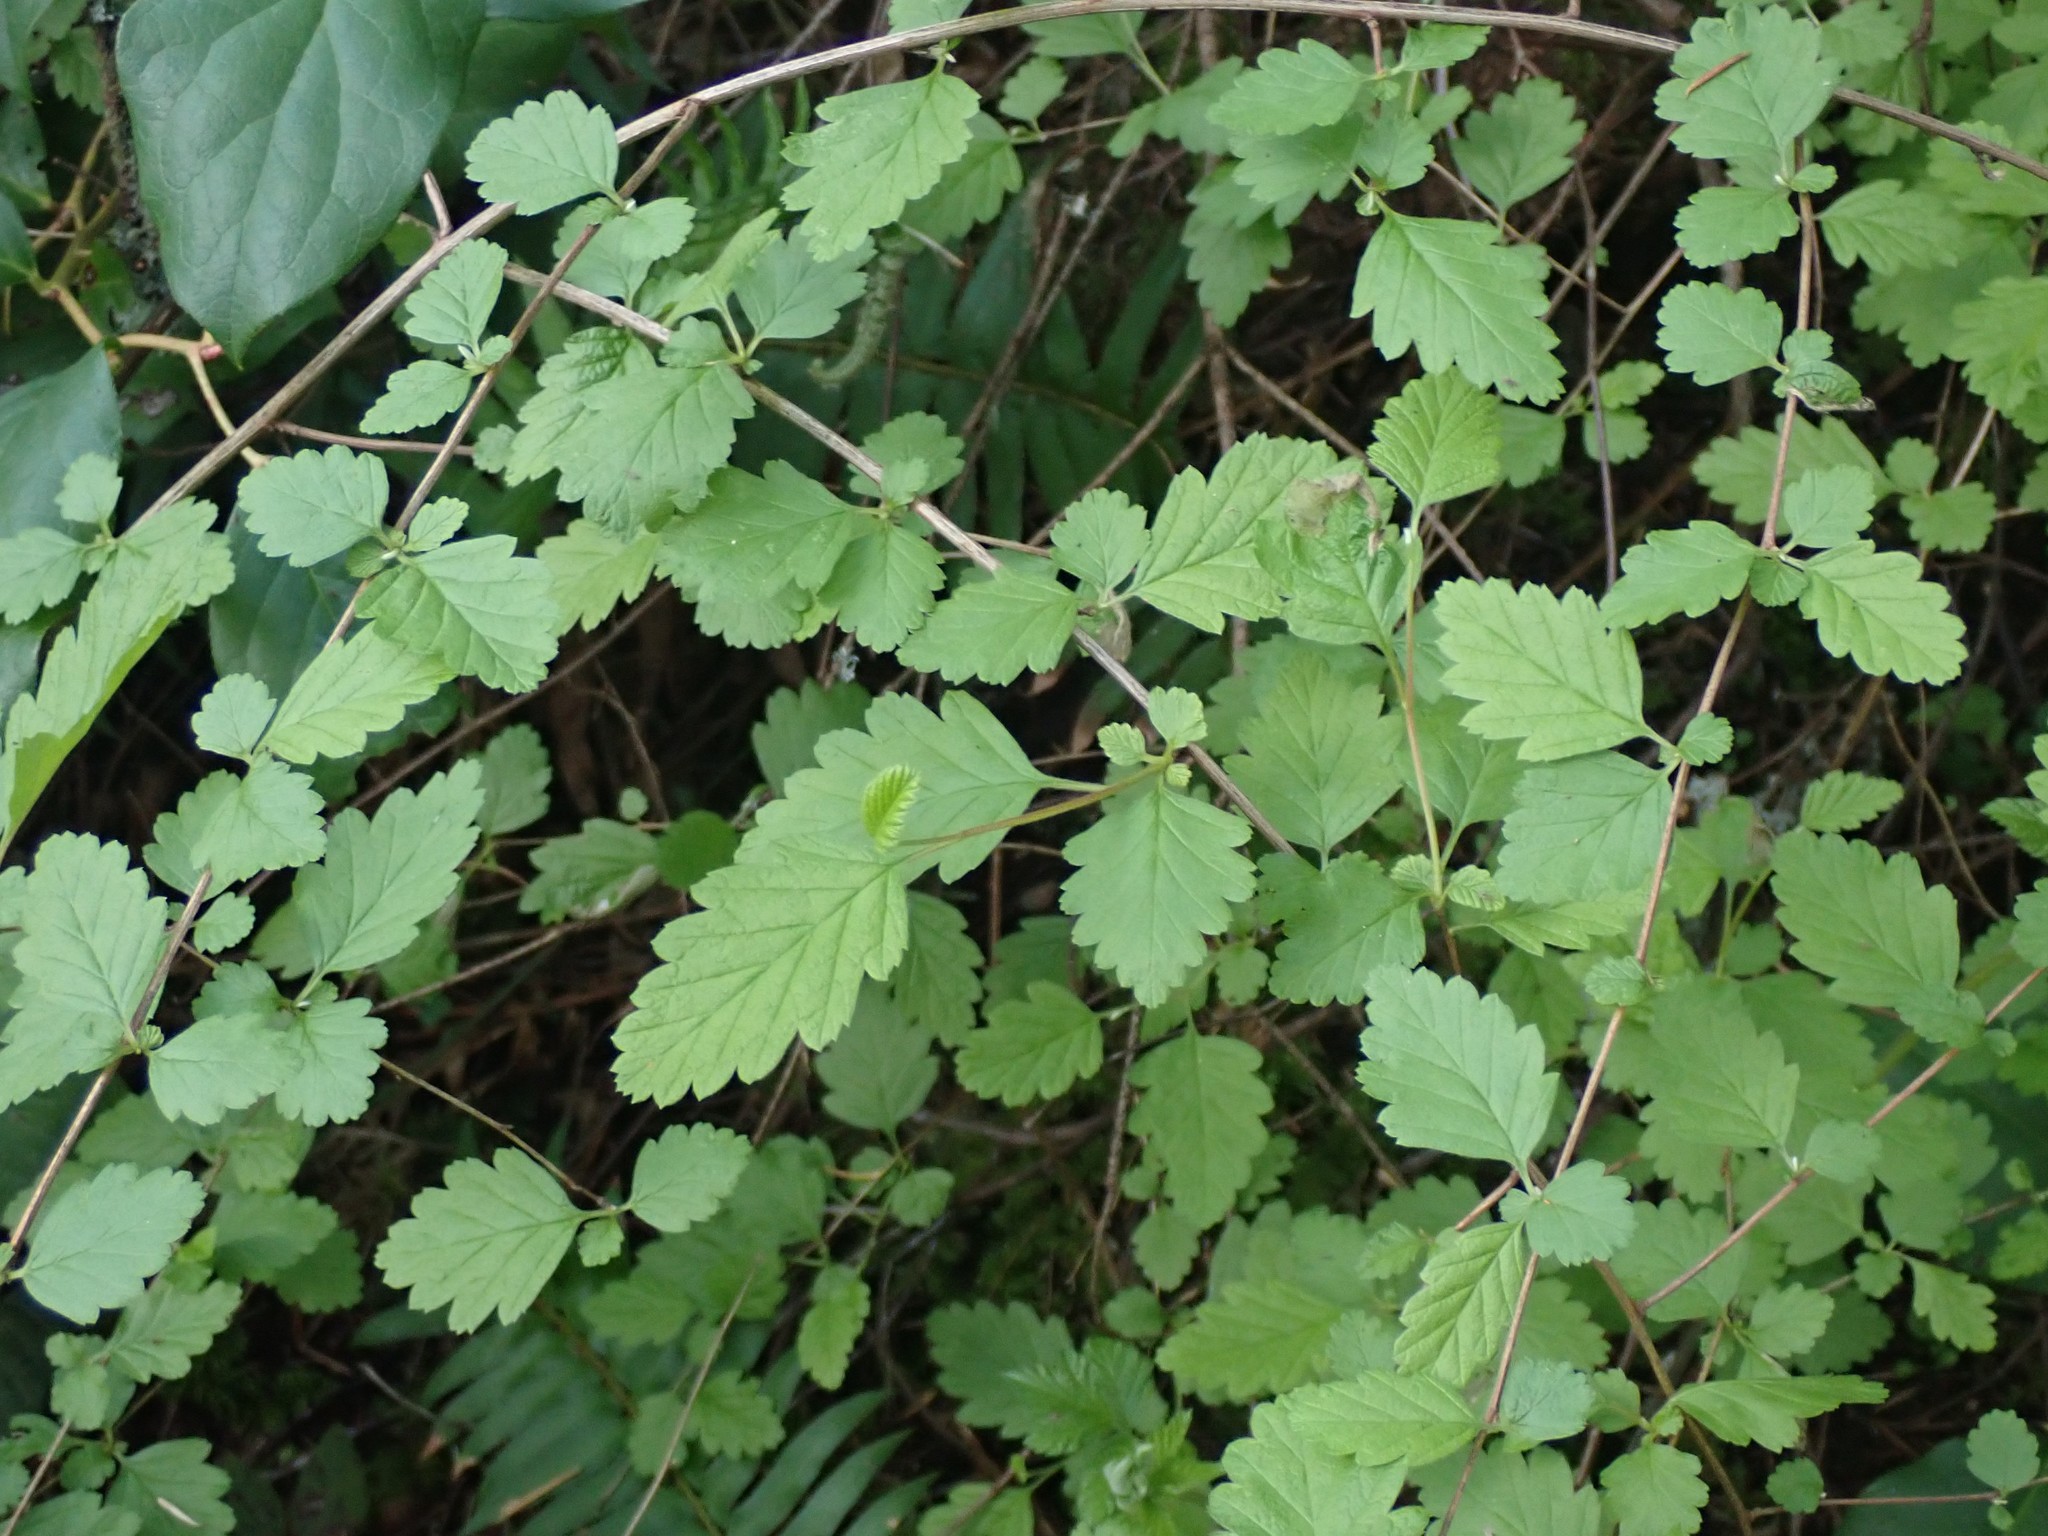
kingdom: Plantae
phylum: Tracheophyta
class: Magnoliopsida
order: Rosales
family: Rosaceae
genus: Holodiscus
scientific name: Holodiscus discolor
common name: Oceanspray
